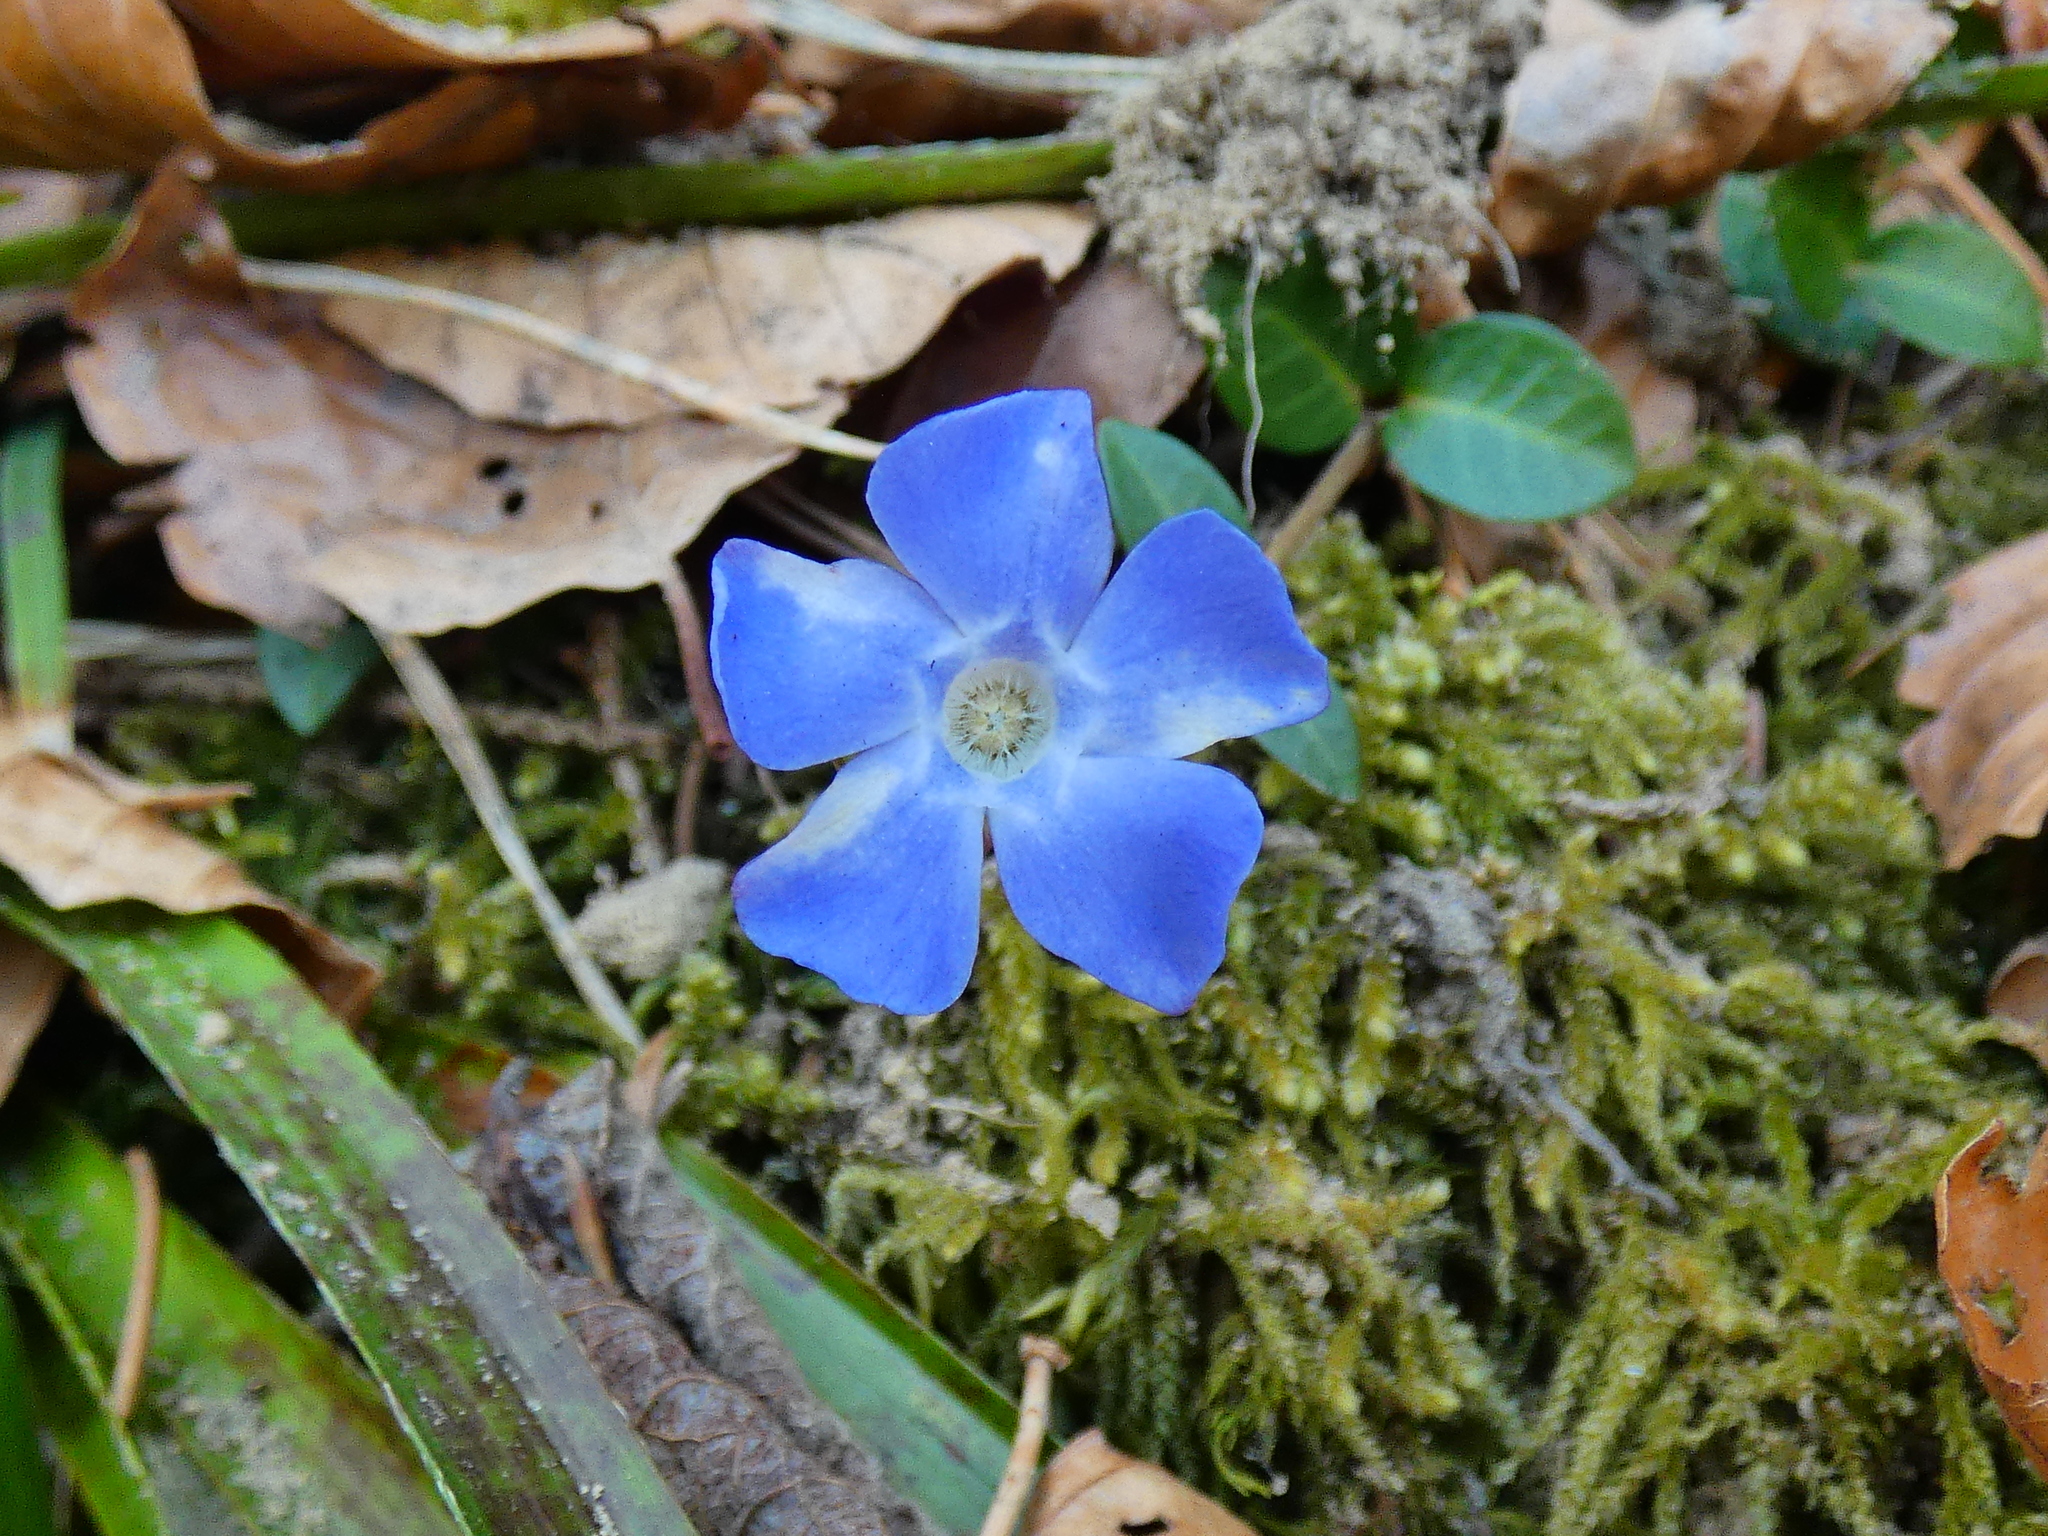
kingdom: Plantae
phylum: Tracheophyta
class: Magnoliopsida
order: Gentianales
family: Apocynaceae
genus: Vinca
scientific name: Vinca minor
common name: Lesser periwinkle
